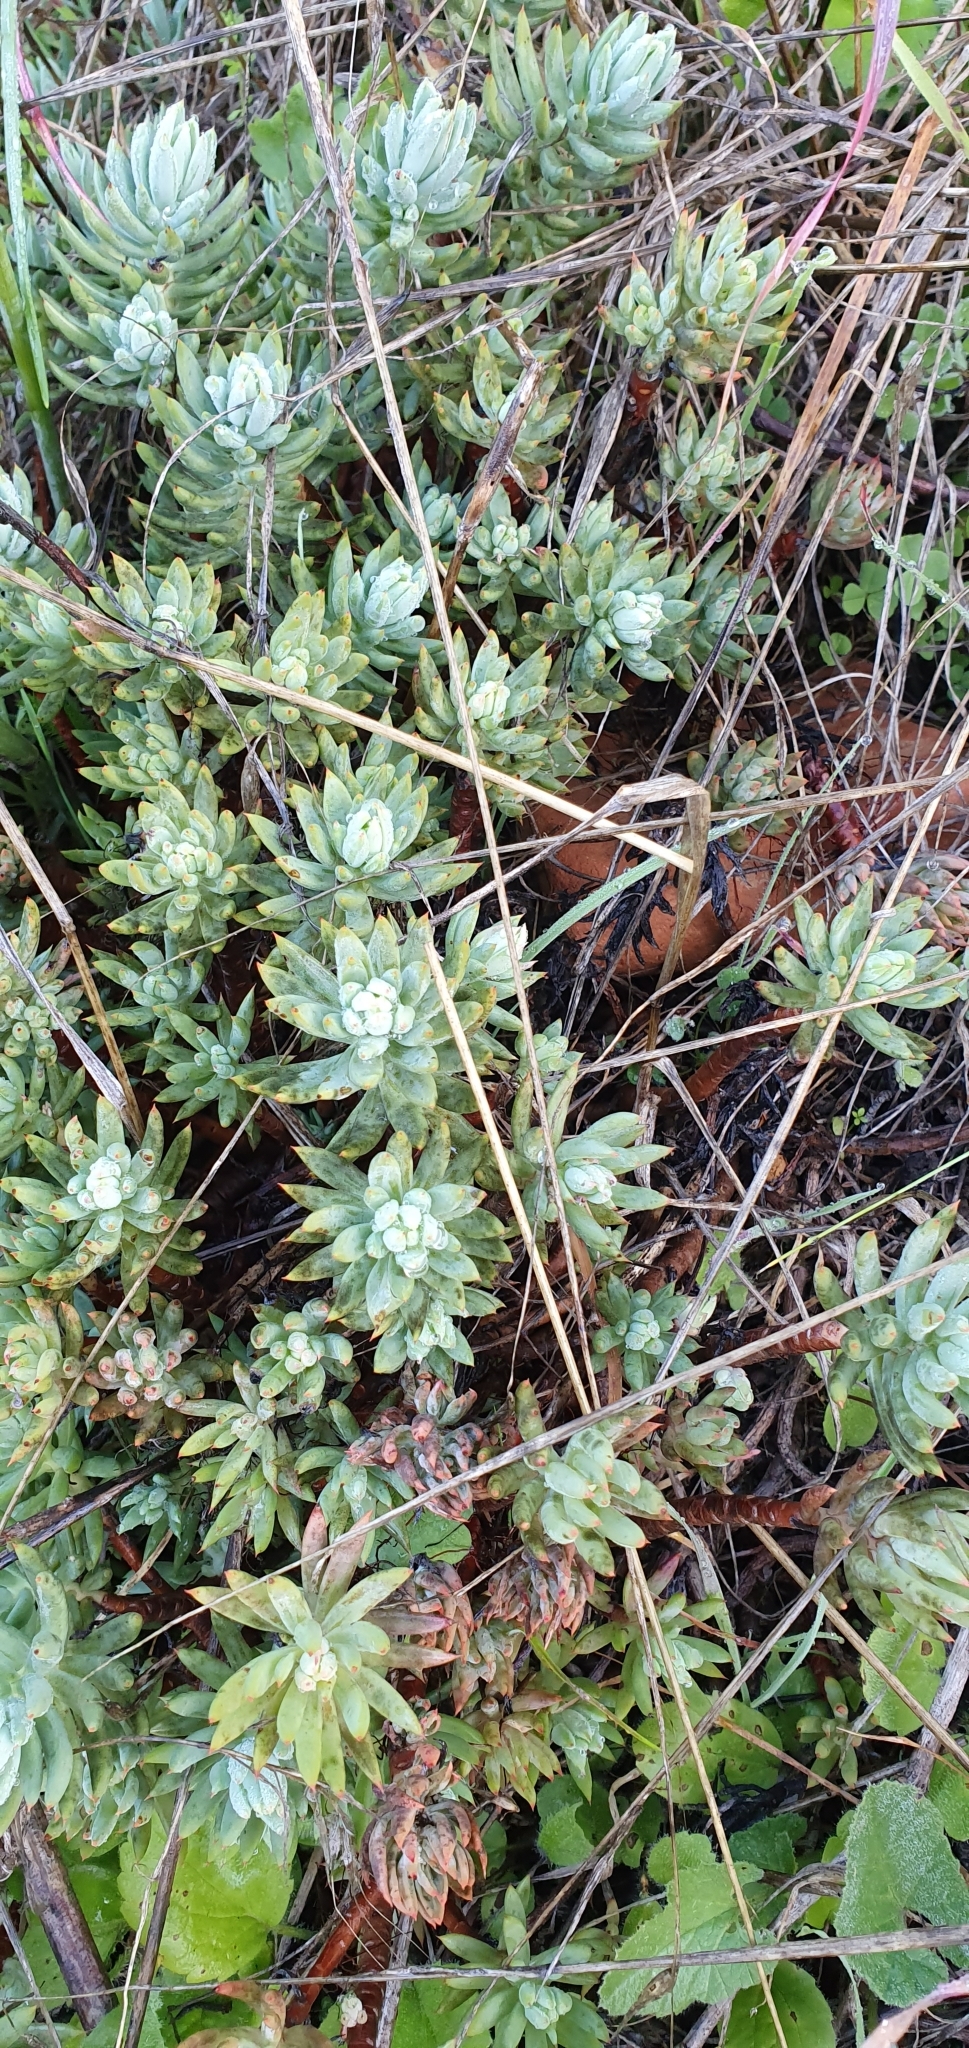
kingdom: Plantae
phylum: Tracheophyta
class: Magnoliopsida
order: Saxifragales
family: Crassulaceae
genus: Petrosedum
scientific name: Petrosedum sediforme
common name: Pale stonecrop
